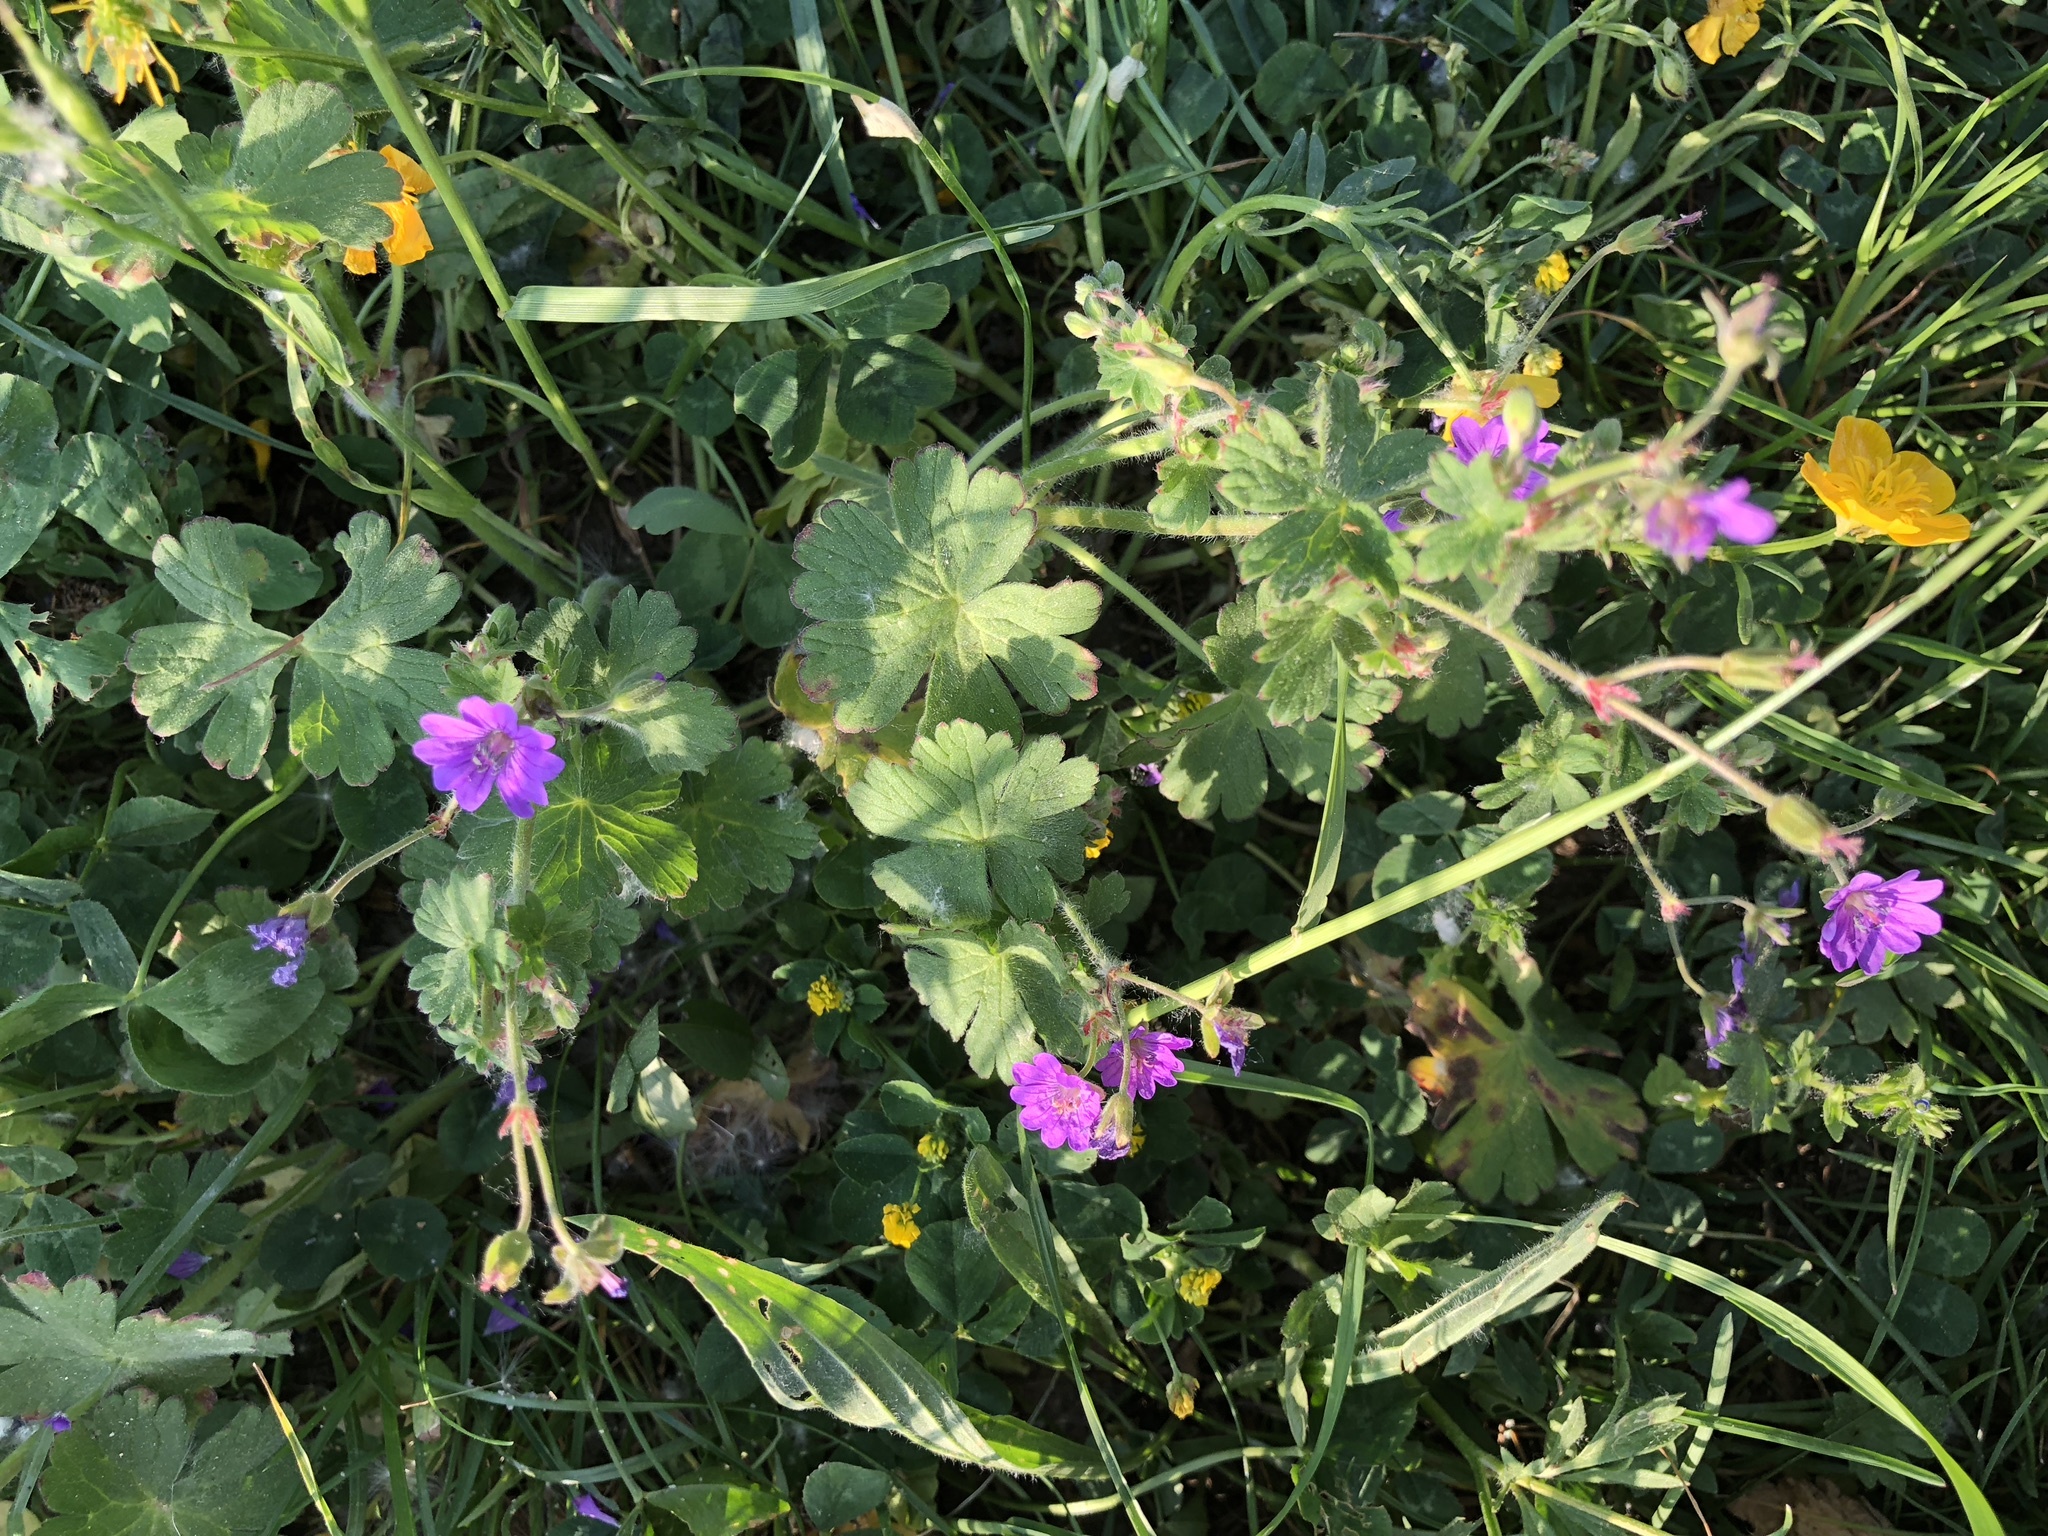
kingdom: Plantae
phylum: Tracheophyta
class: Magnoliopsida
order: Geraniales
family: Geraniaceae
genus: Geranium
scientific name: Geranium molle
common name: Dove's-foot crane's-bill
